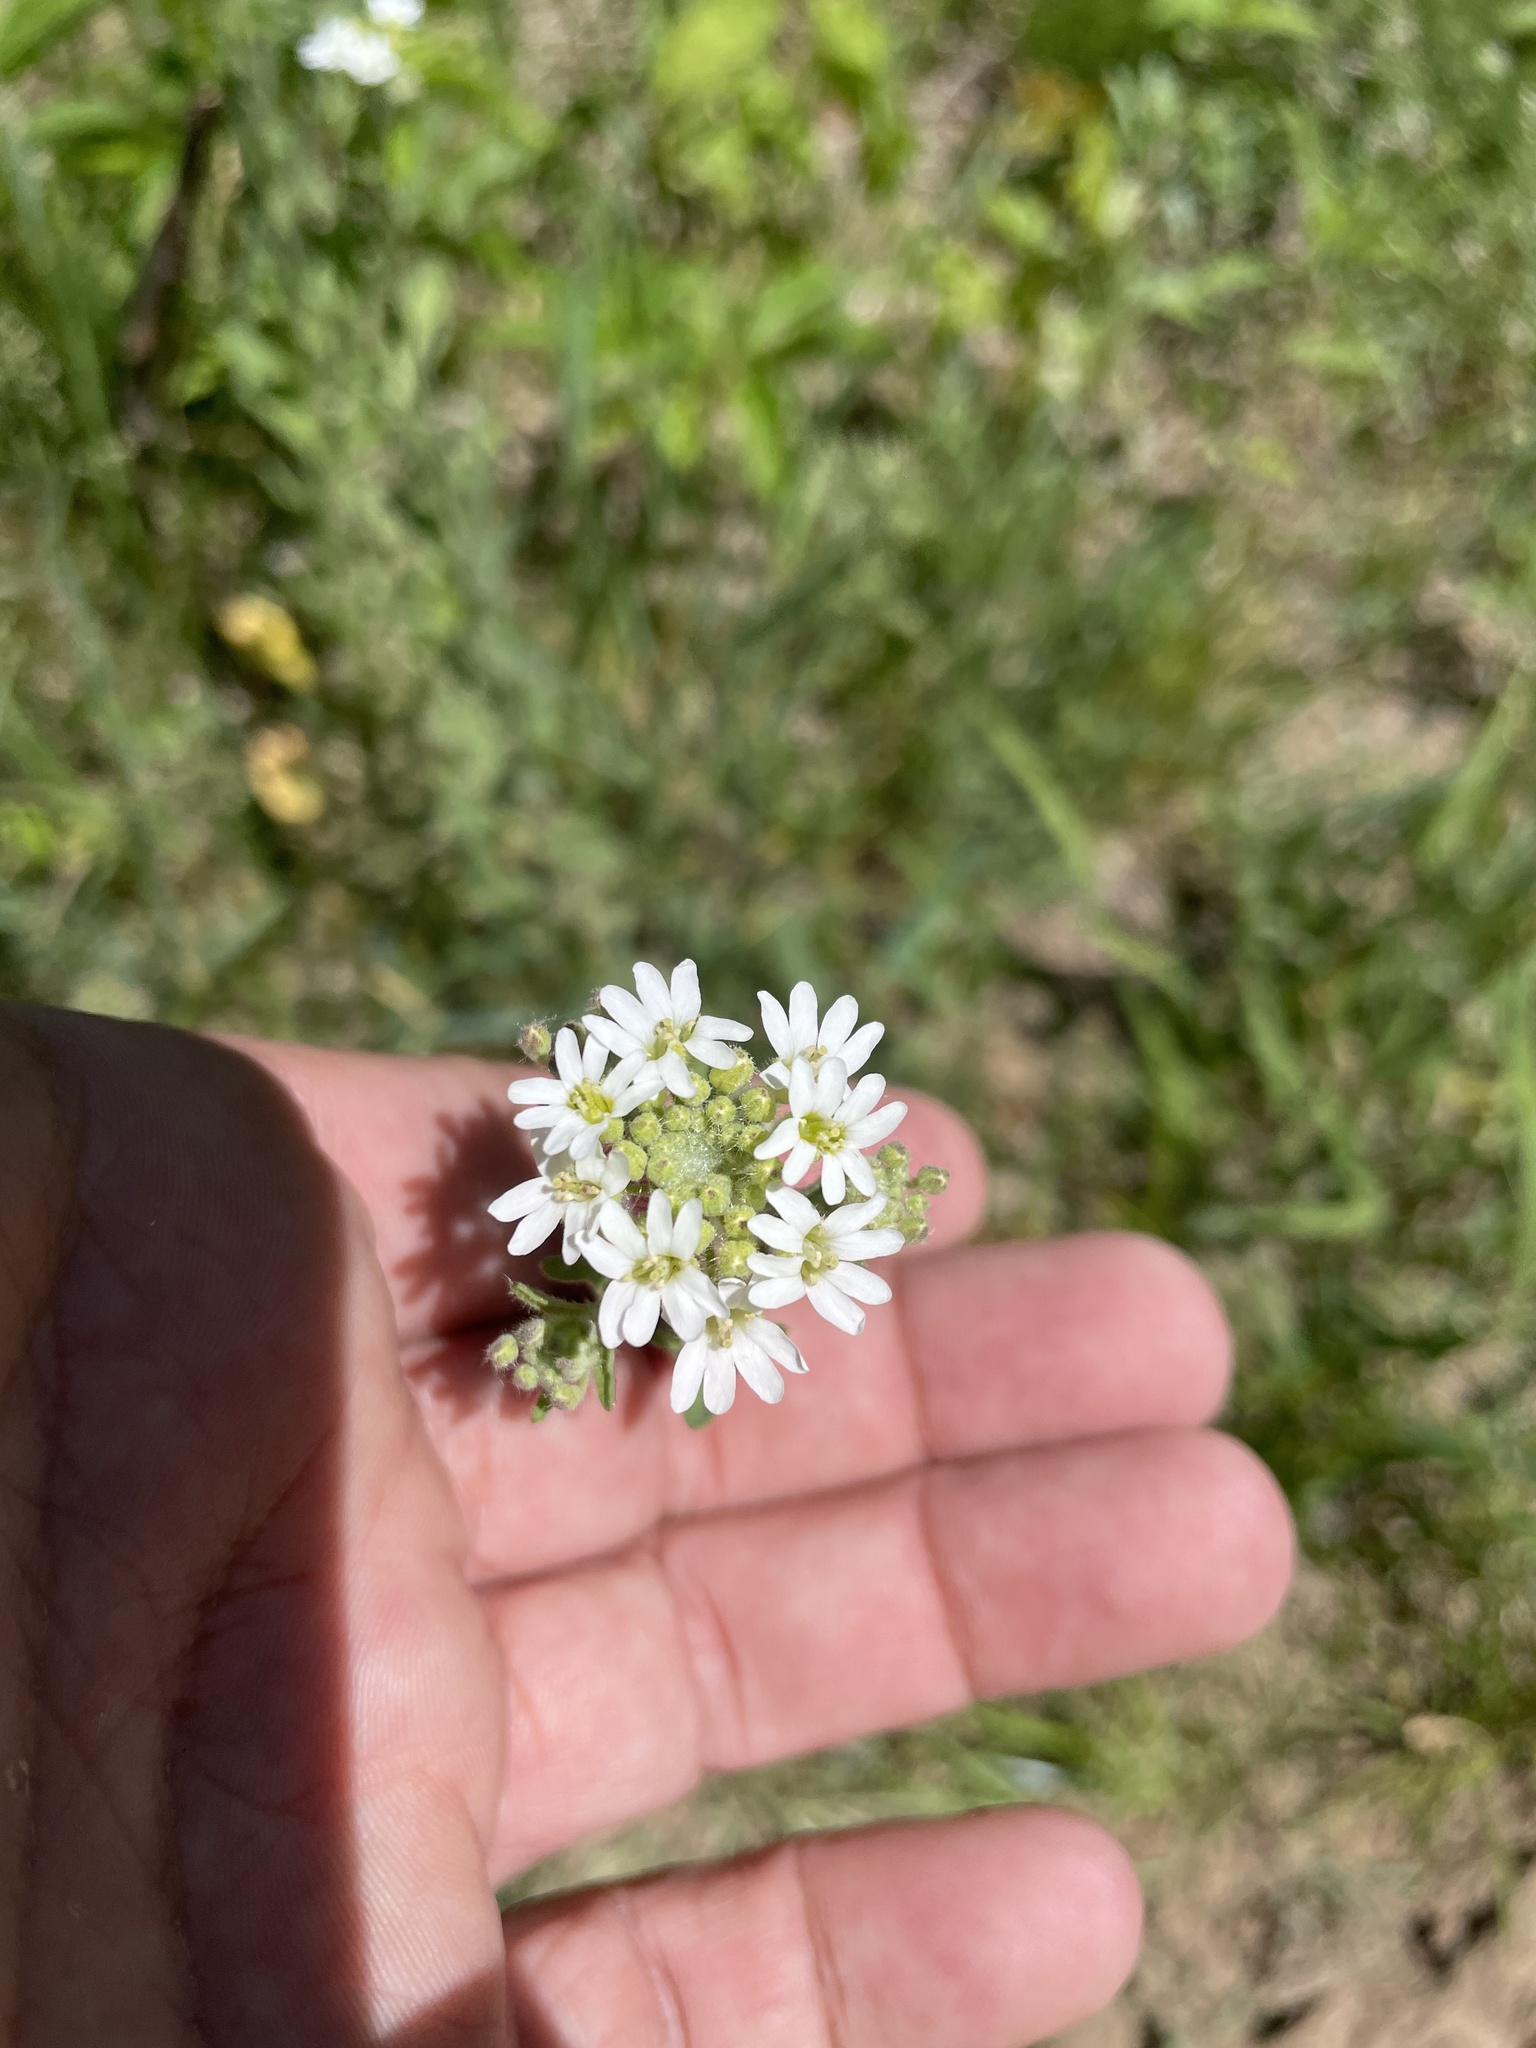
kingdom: Plantae
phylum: Tracheophyta
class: Magnoliopsida
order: Brassicales
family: Brassicaceae
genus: Berteroa
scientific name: Berteroa incana
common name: Hoary alison
